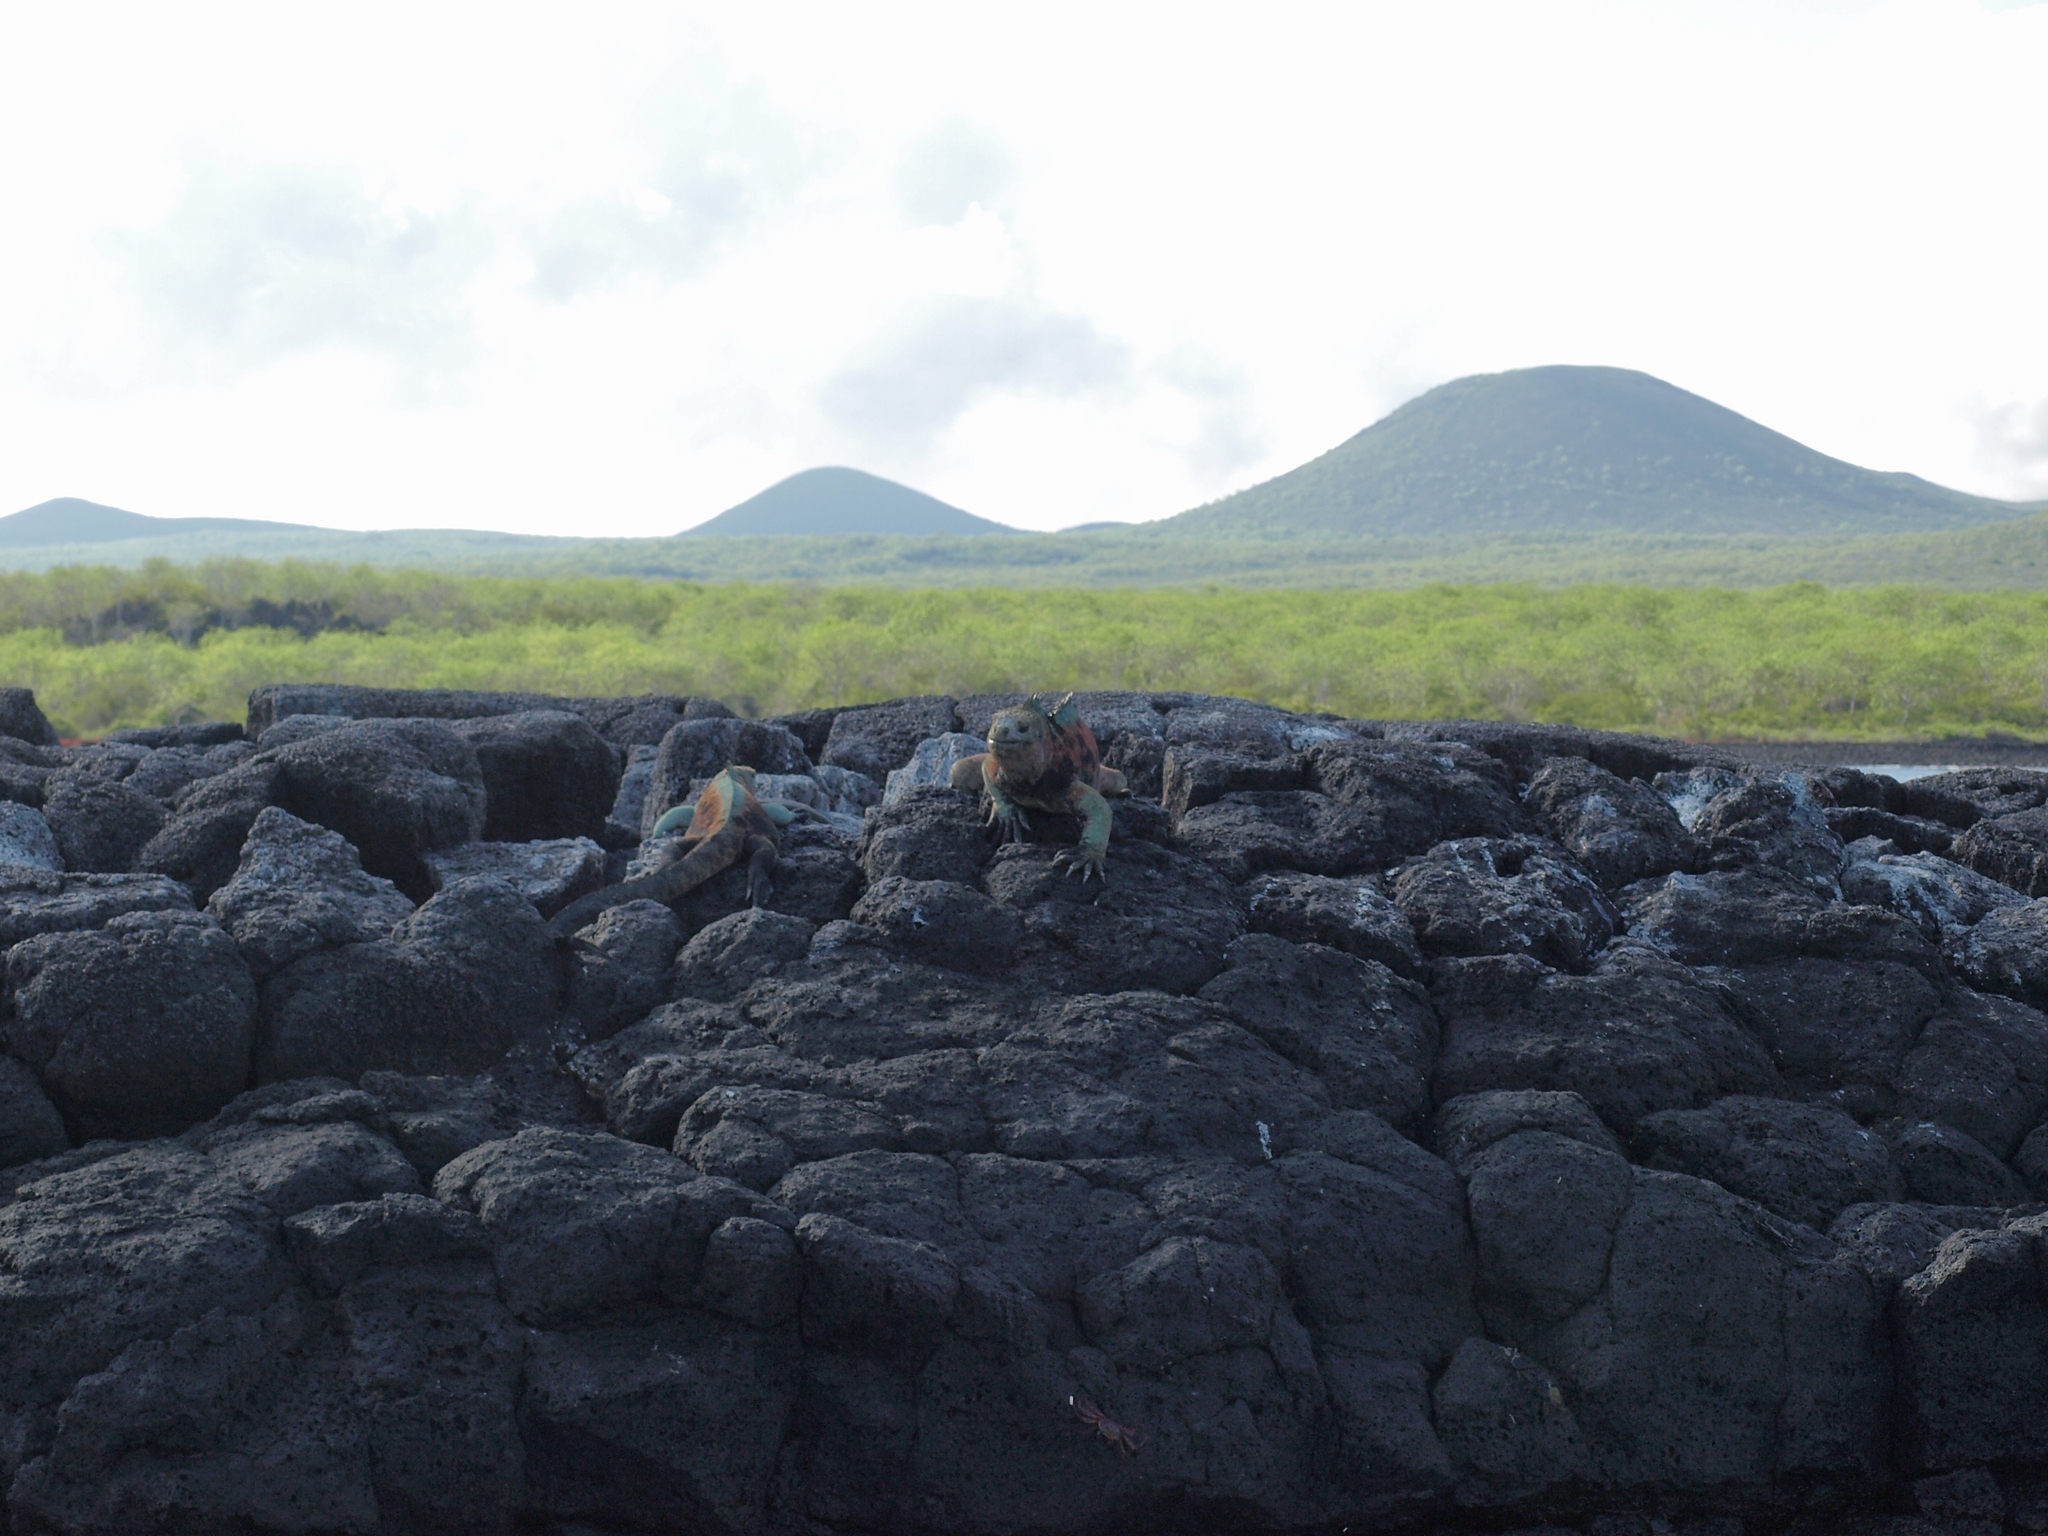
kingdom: Animalia
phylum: Chordata
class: Squamata
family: Iguanidae
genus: Amblyrhynchus
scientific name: Amblyrhynchus cristatus
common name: Marine iguana
